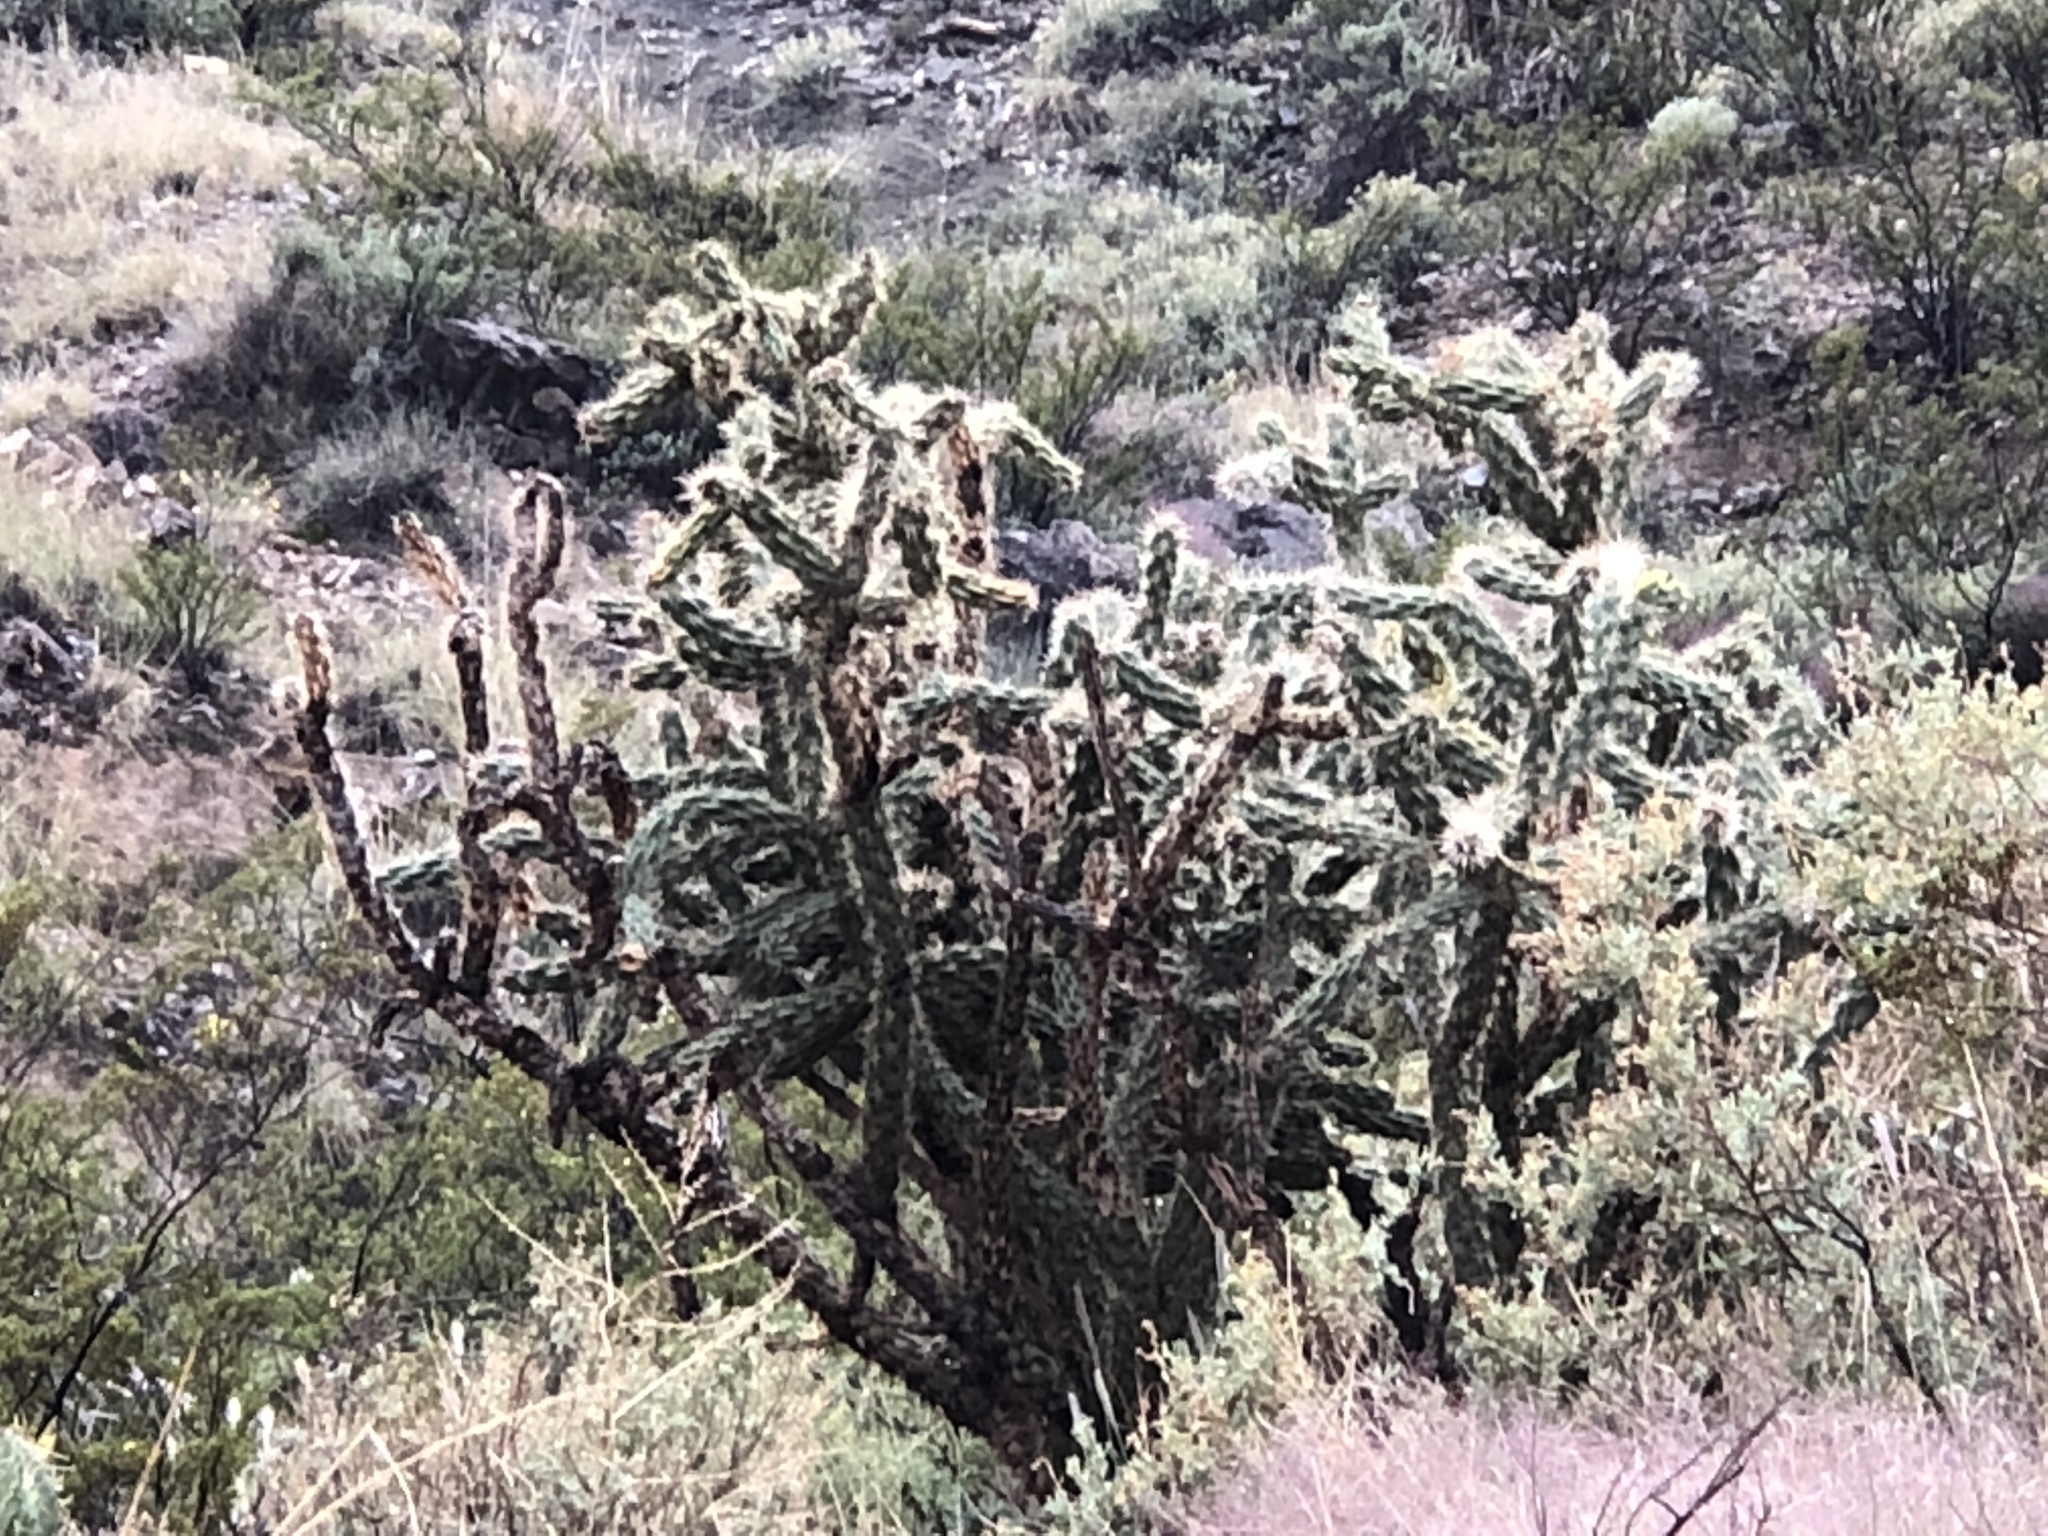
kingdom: Plantae
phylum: Tracheophyta
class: Magnoliopsida
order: Caryophyllales
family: Cactaceae
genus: Cylindropuntia
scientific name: Cylindropuntia imbricata
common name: Candelabrum cactus
